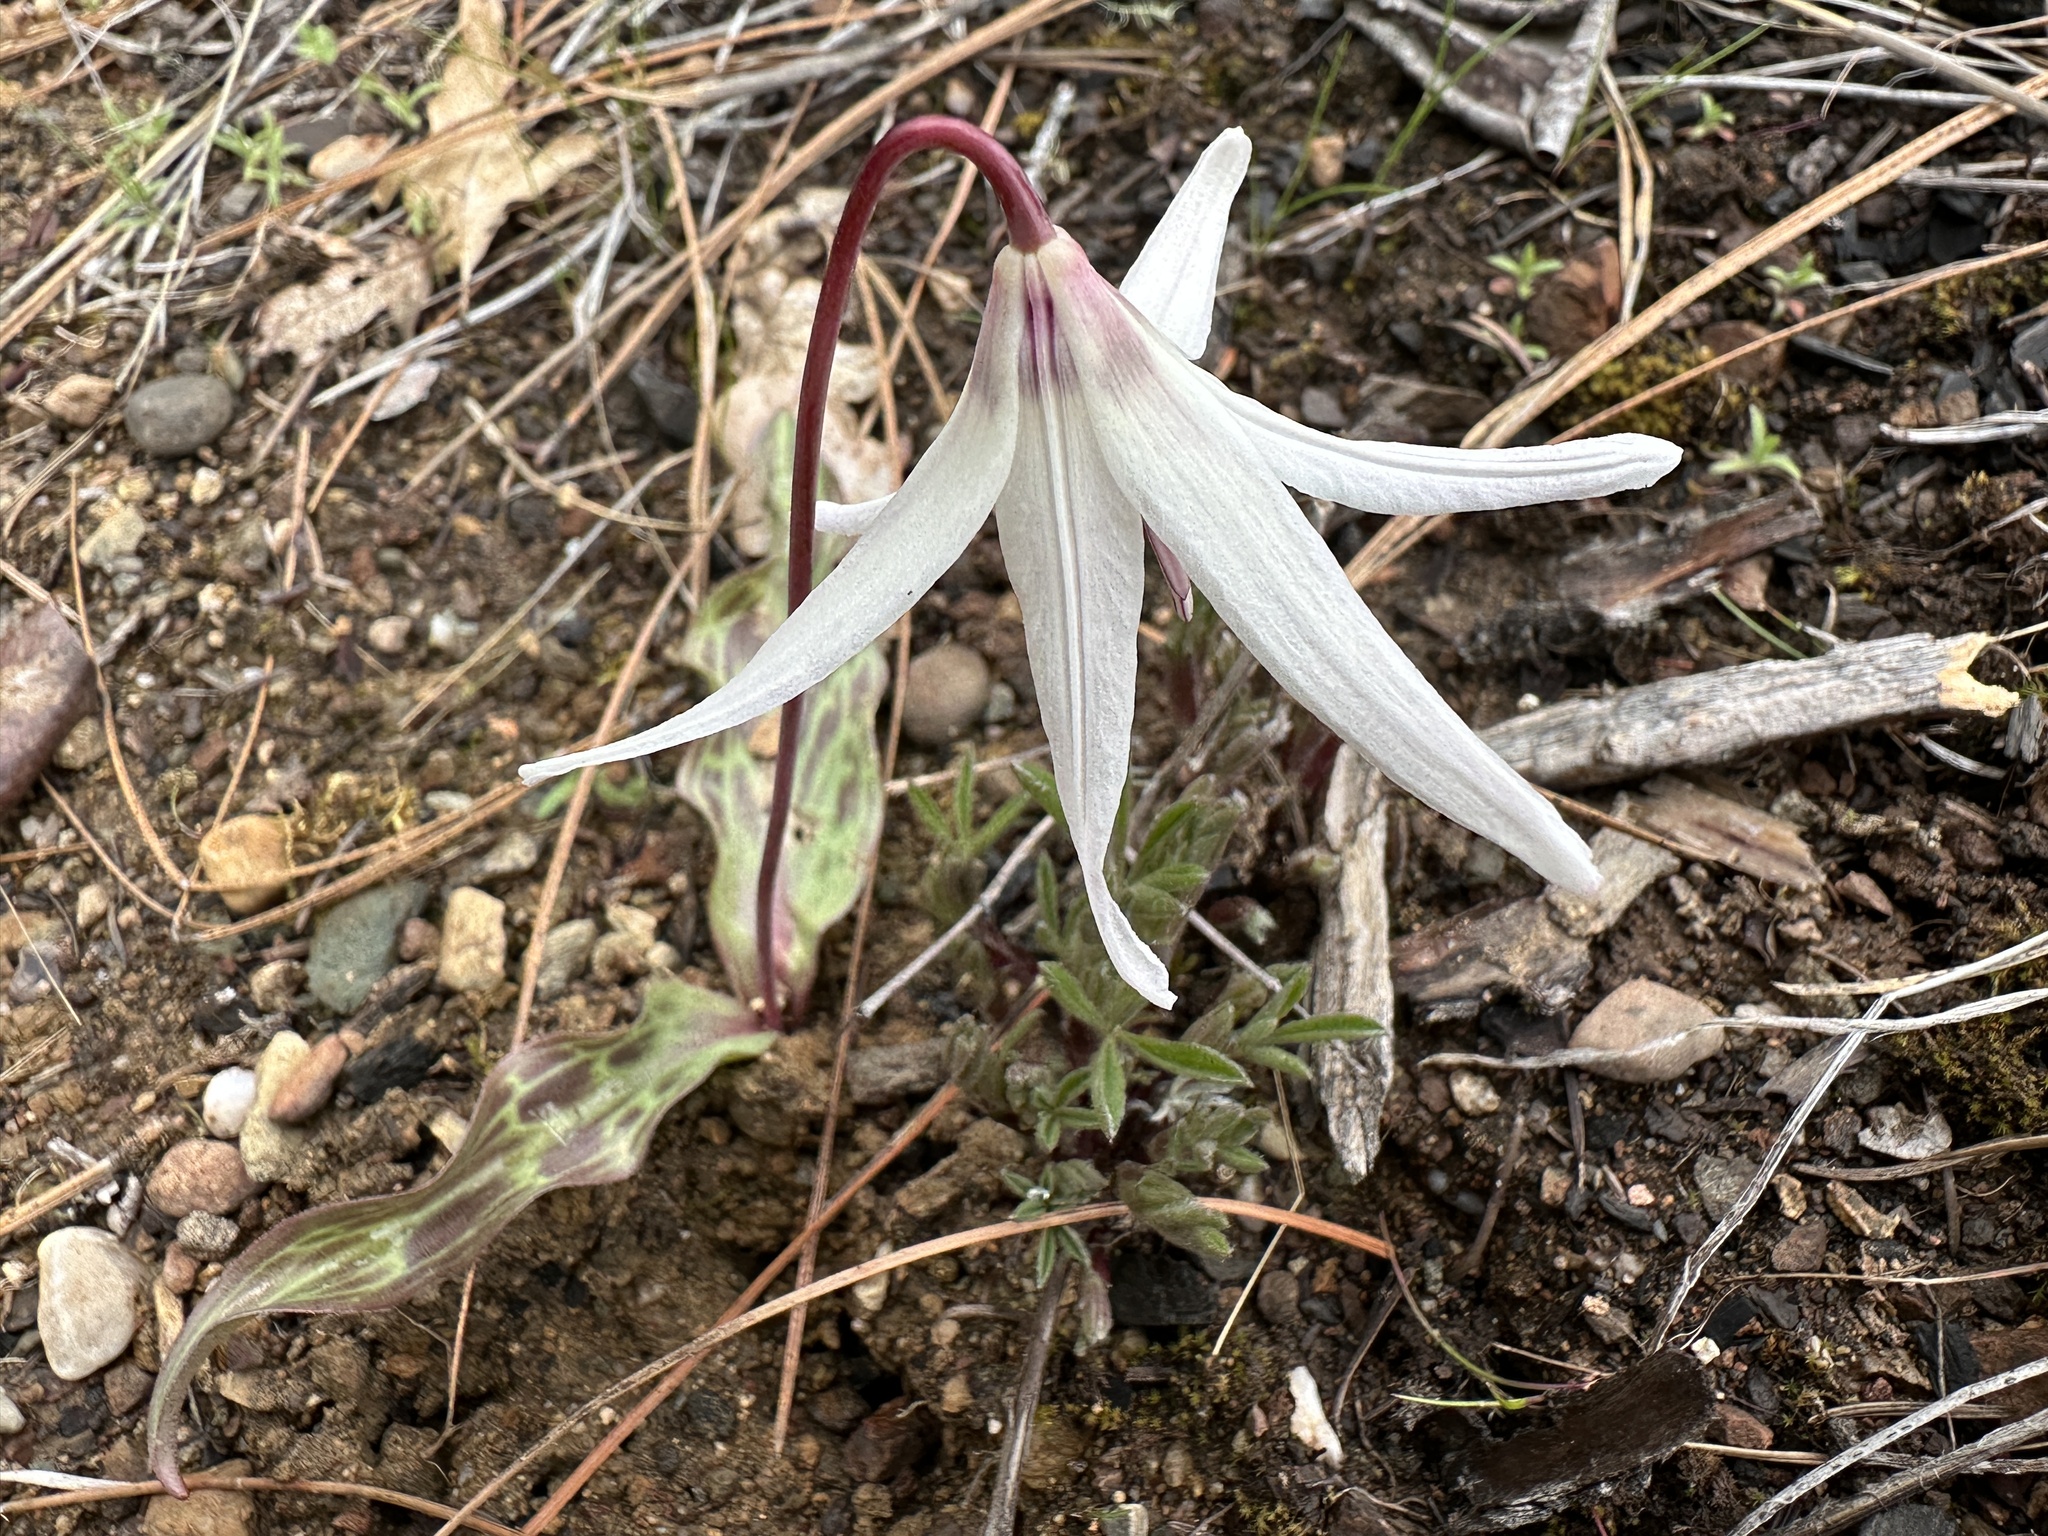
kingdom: Plantae
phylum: Tracheophyta
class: Liliopsida
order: Liliales
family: Liliaceae
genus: Erythronium
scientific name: Erythronium hendersonii
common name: Henderson's fawn-lily
